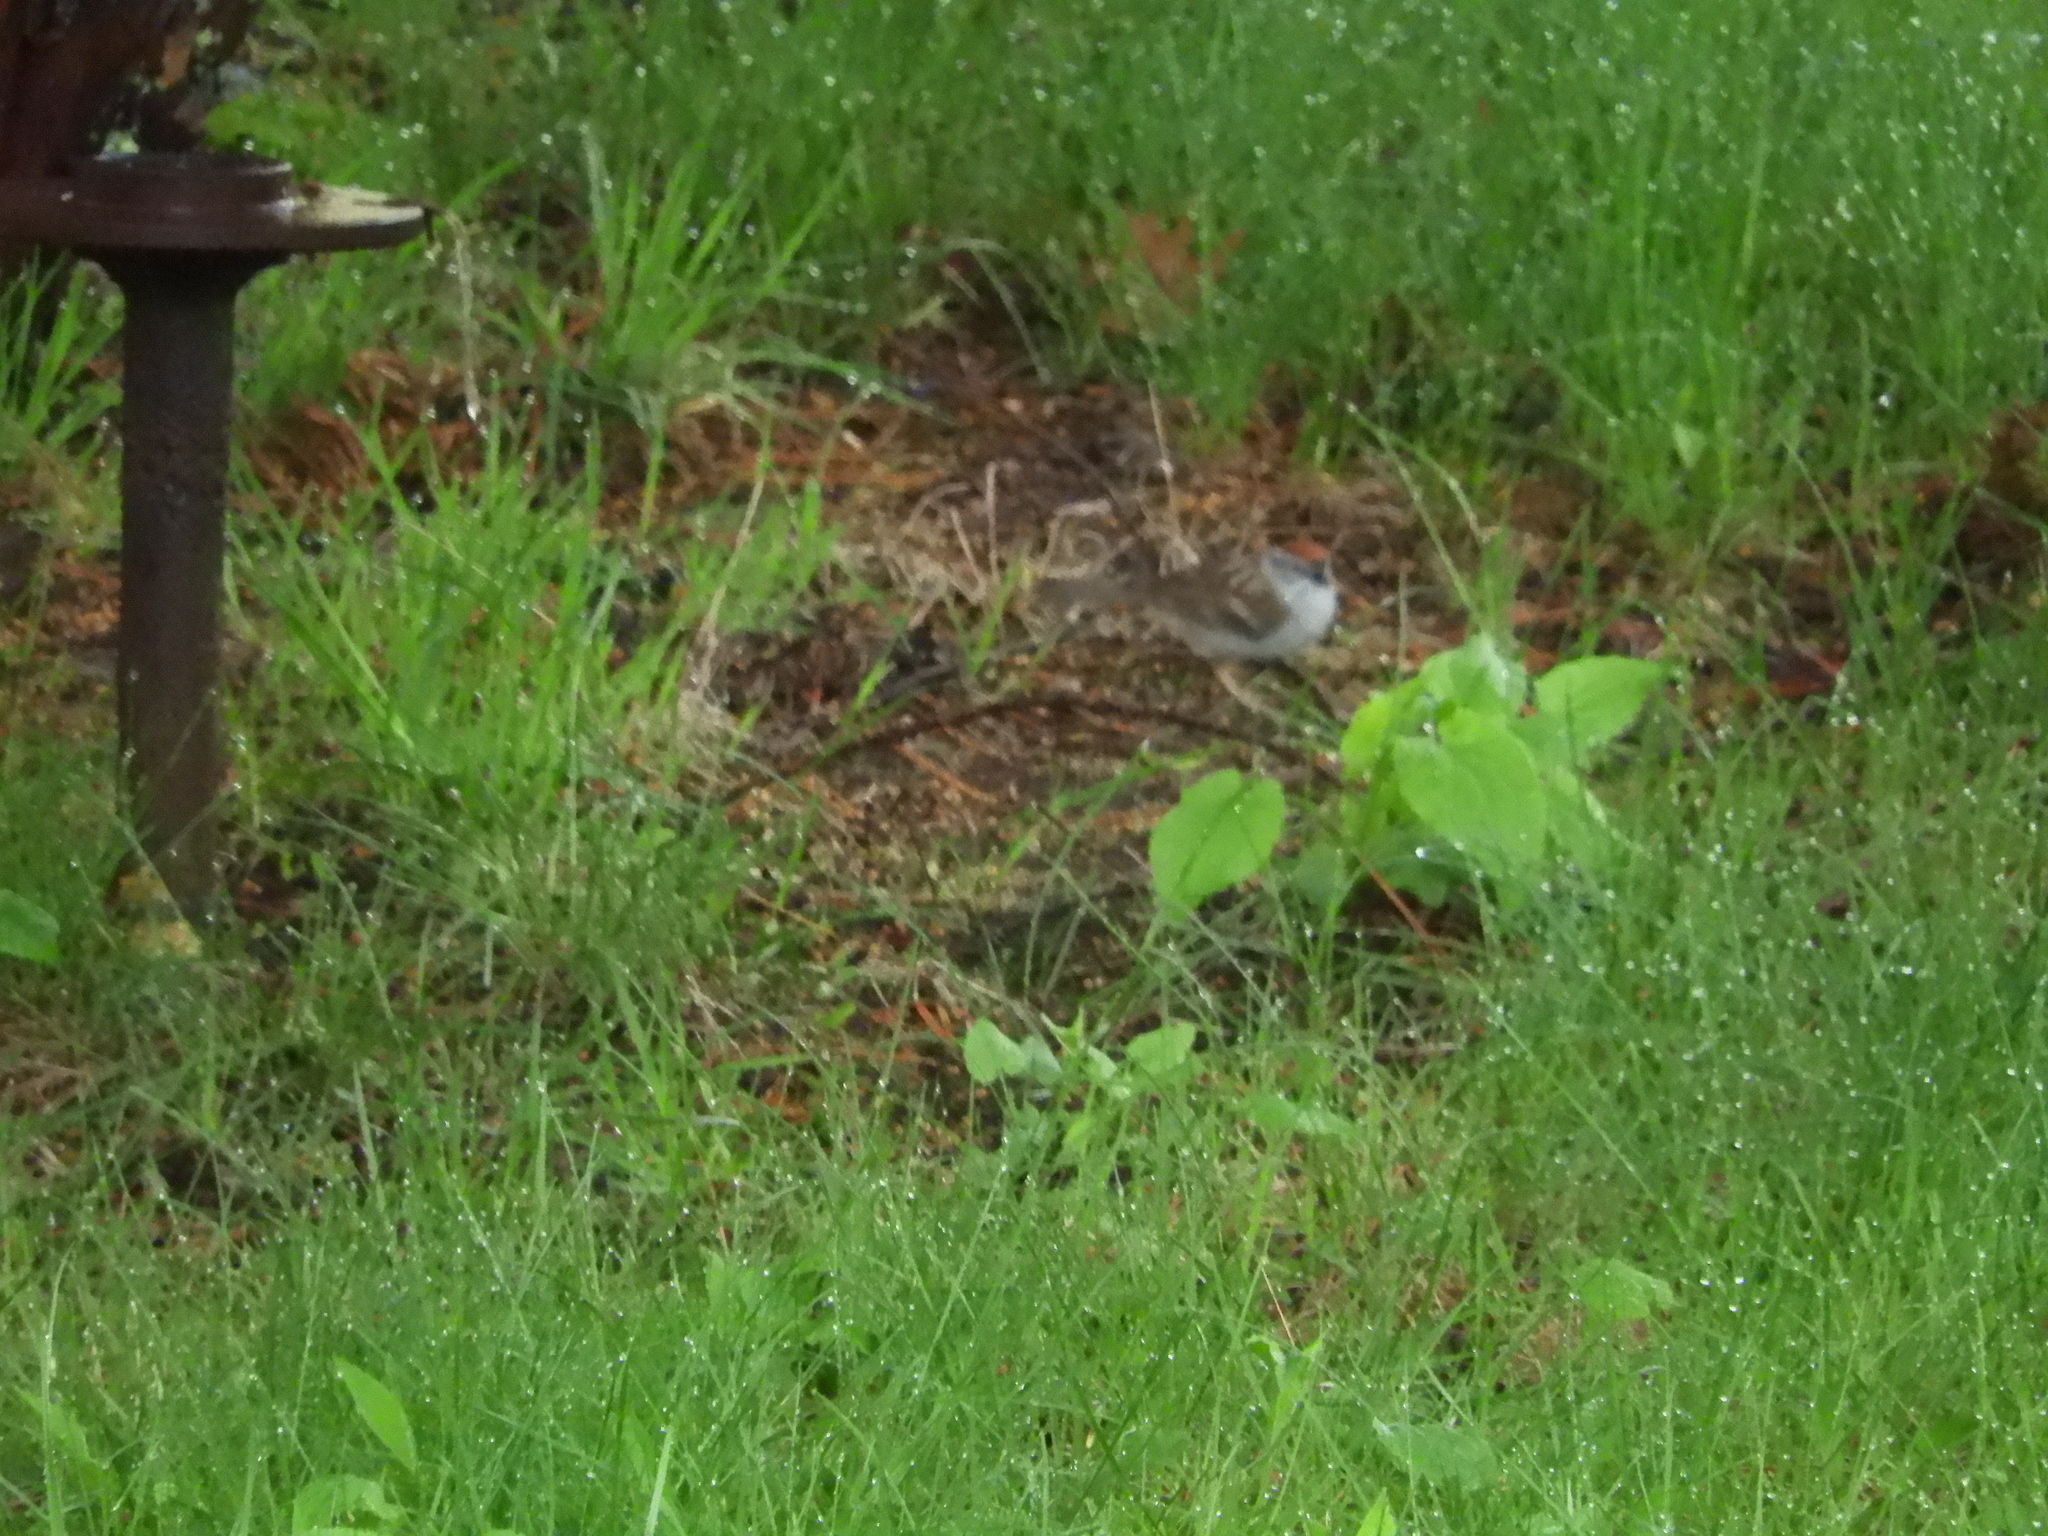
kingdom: Animalia
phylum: Chordata
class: Aves
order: Passeriformes
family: Paridae
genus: Baeolophus
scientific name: Baeolophus bicolor
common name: Tufted titmouse
